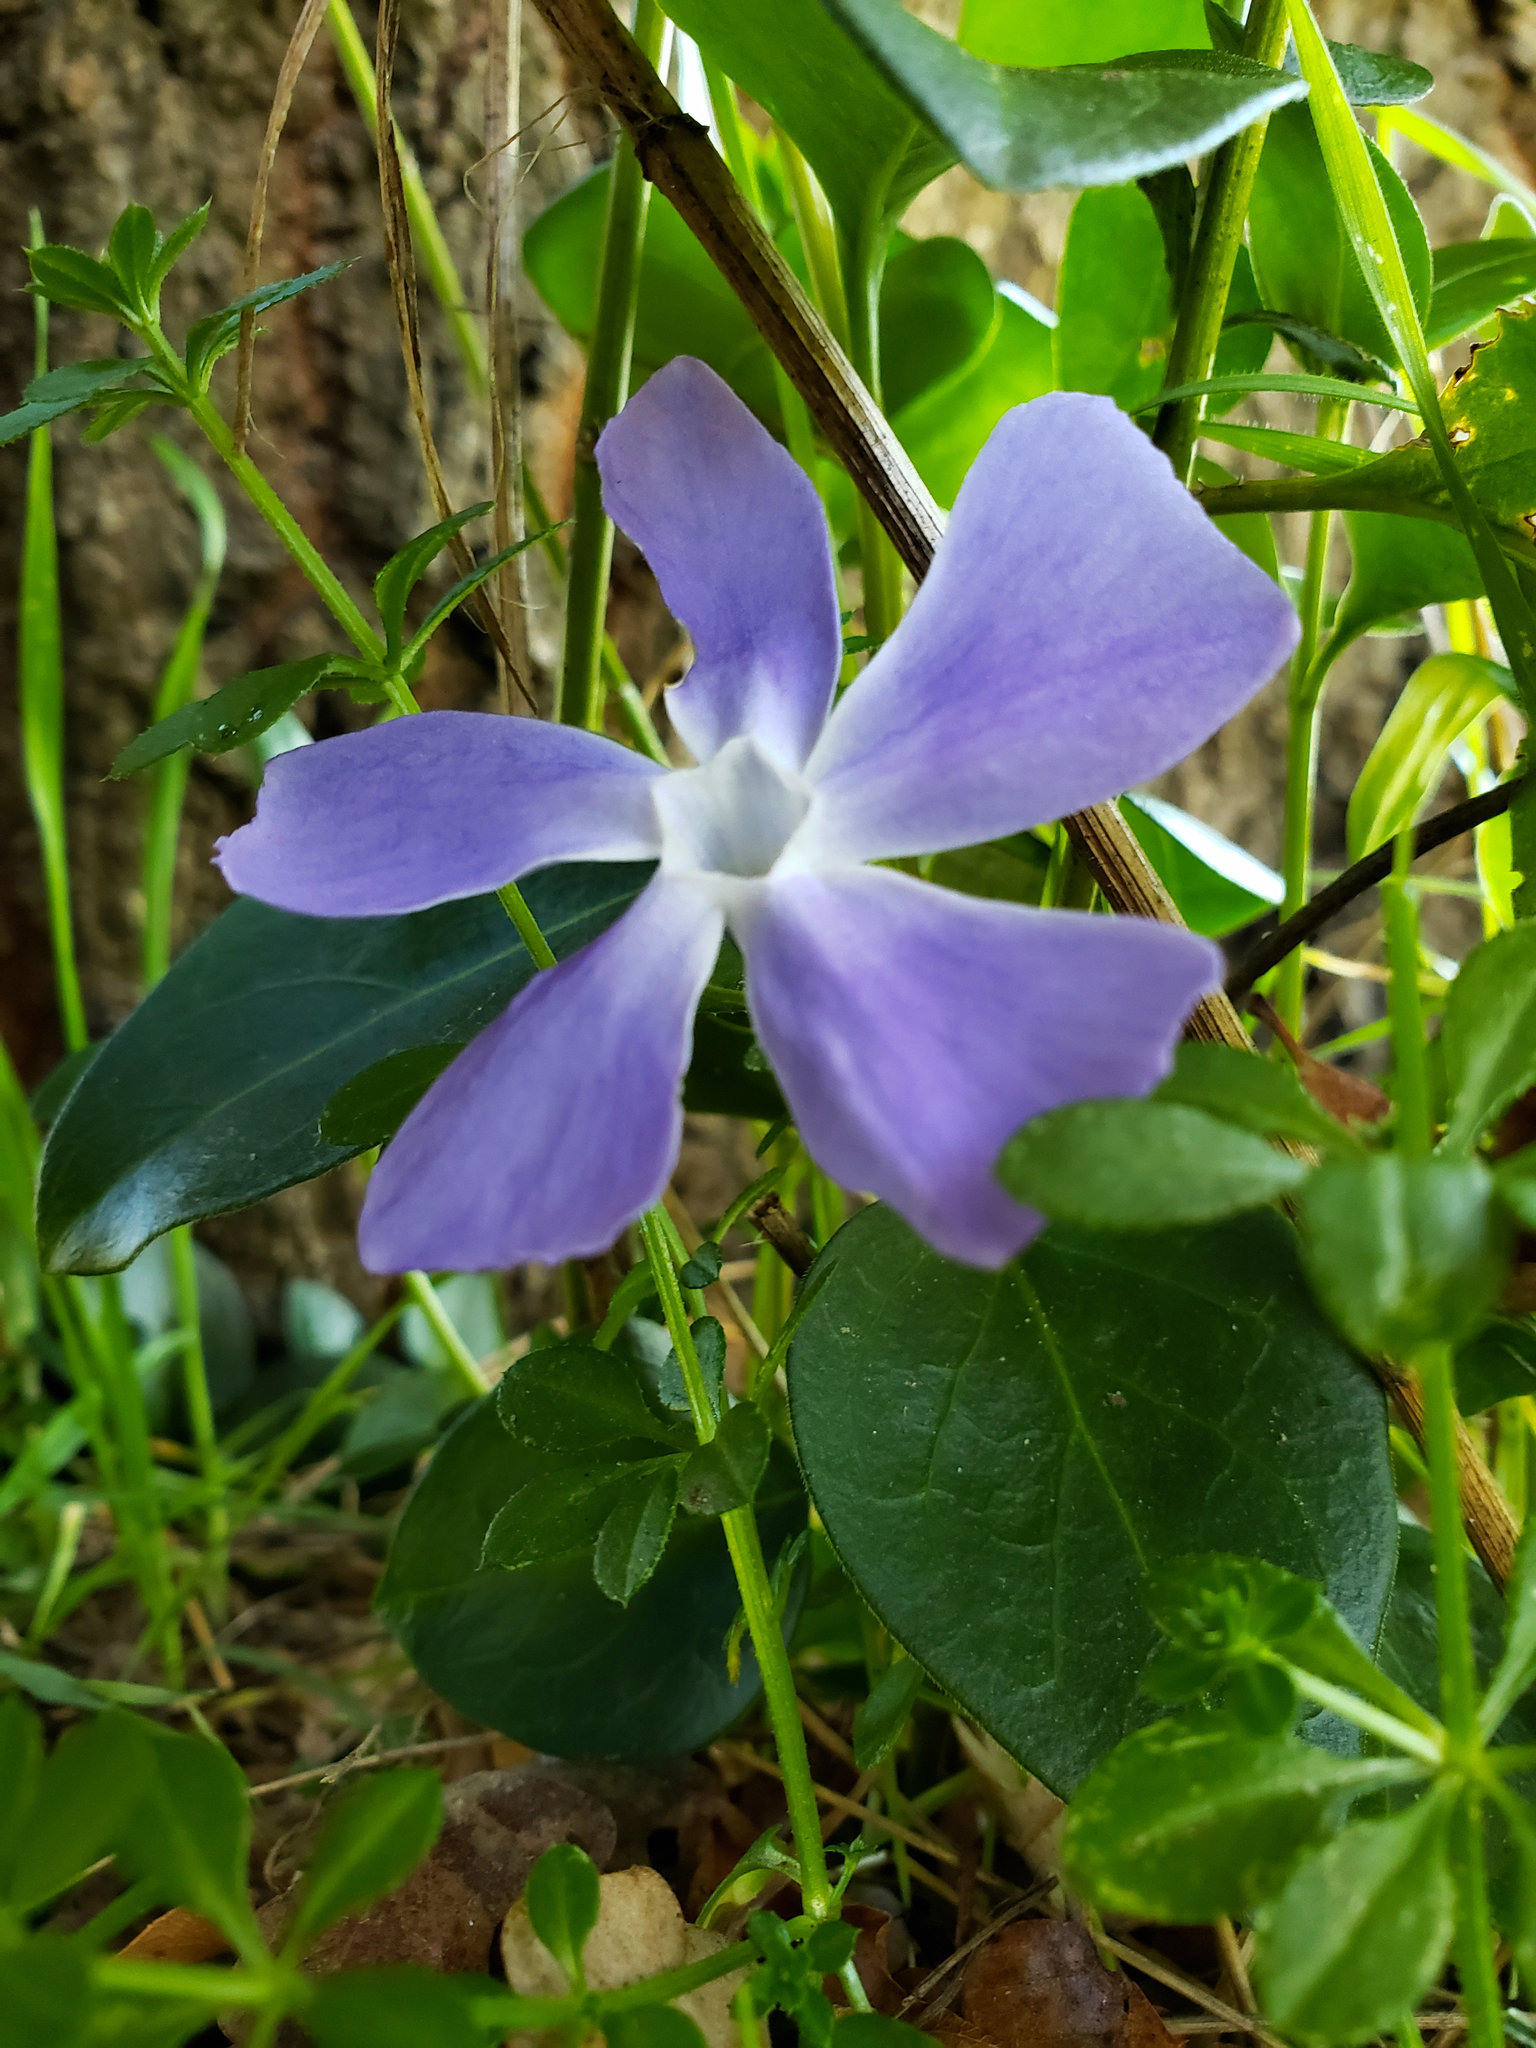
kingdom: Plantae
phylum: Tracheophyta
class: Magnoliopsida
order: Gentianales
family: Apocynaceae
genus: Vinca
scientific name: Vinca major
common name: Greater periwinkle
